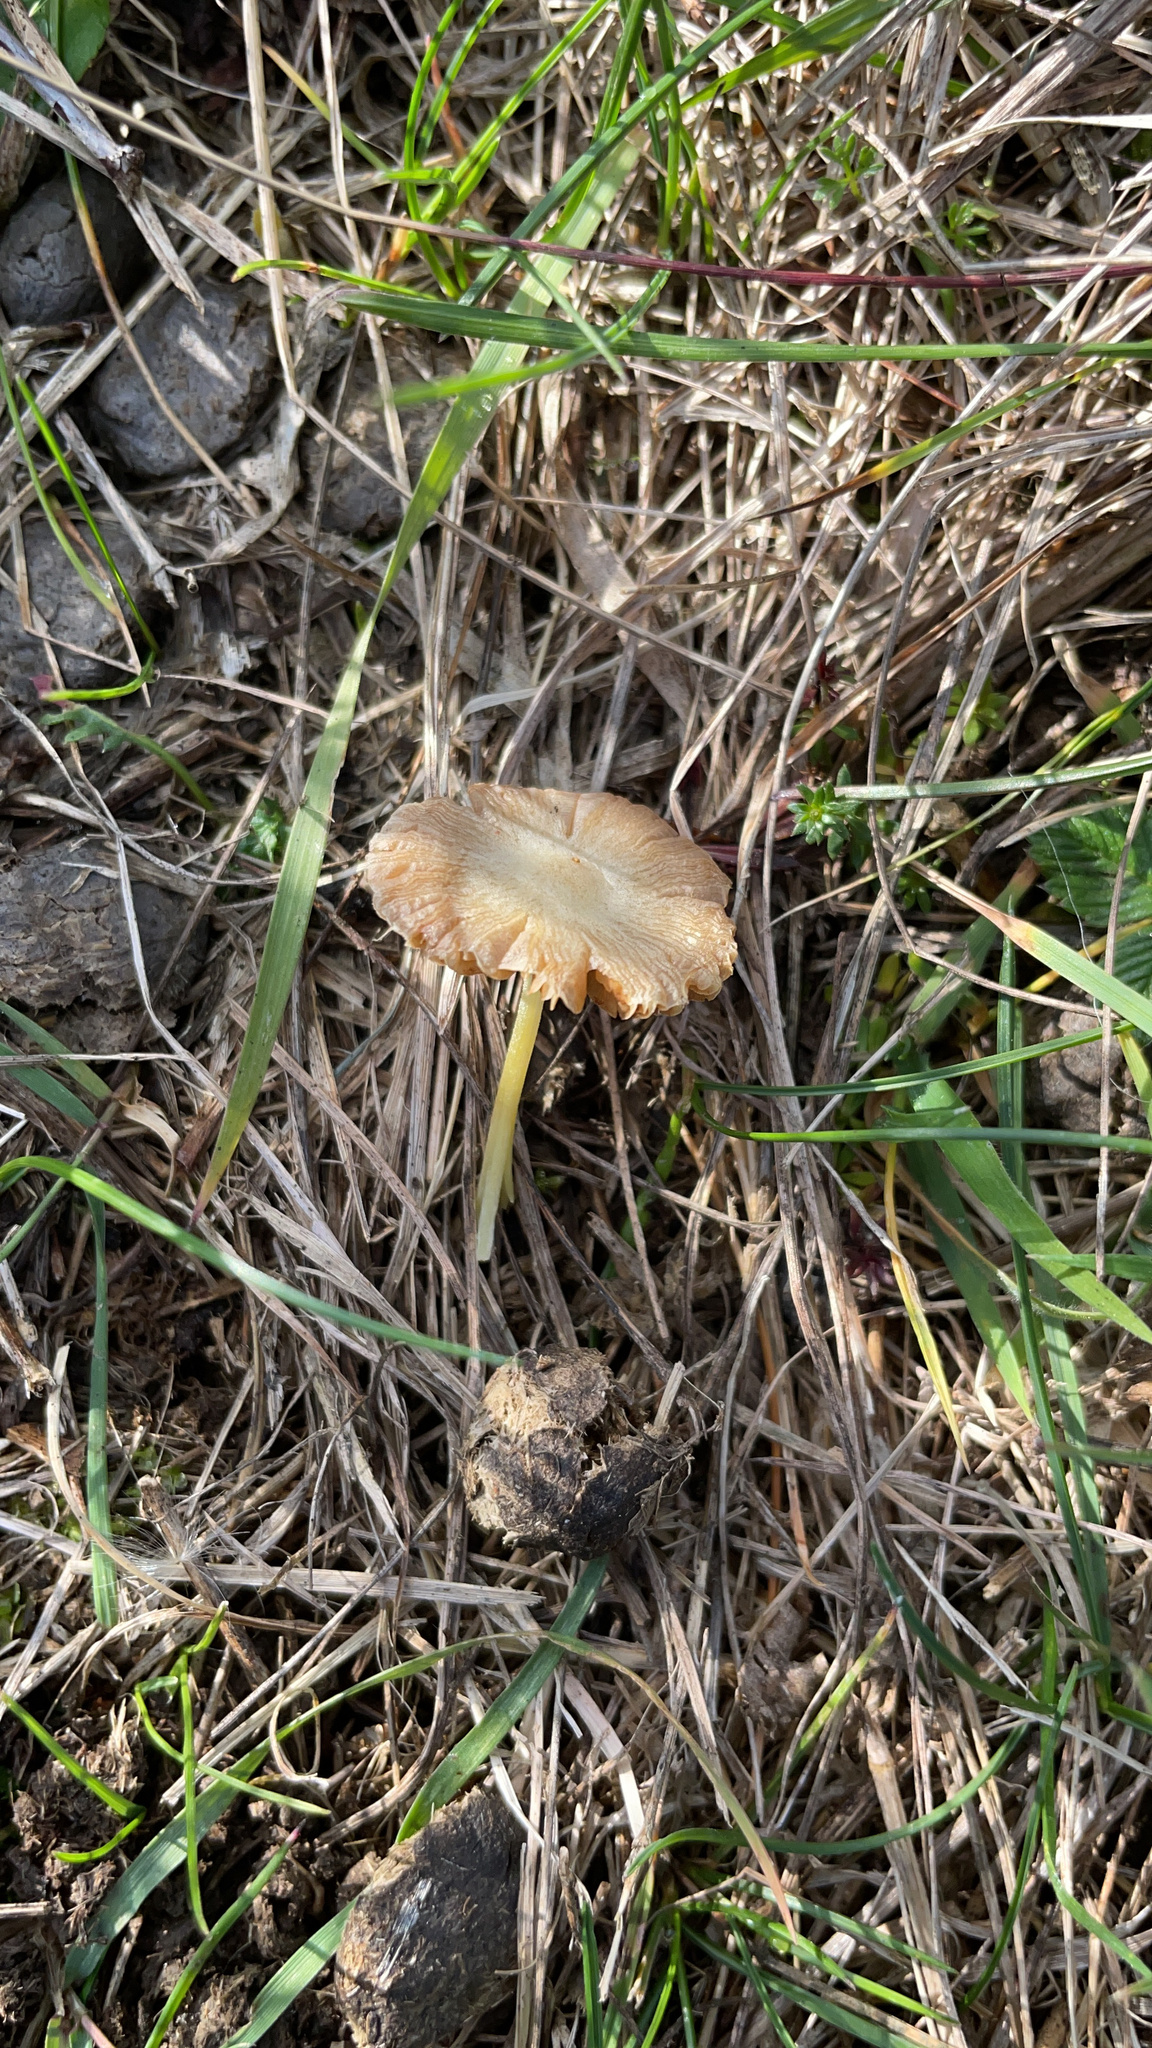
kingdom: Fungi
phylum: Basidiomycota
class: Agaricomycetes
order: Agaricales
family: Bolbitiaceae
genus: Bolbitius
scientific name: Bolbitius titubans
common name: Yellow fieldcap
